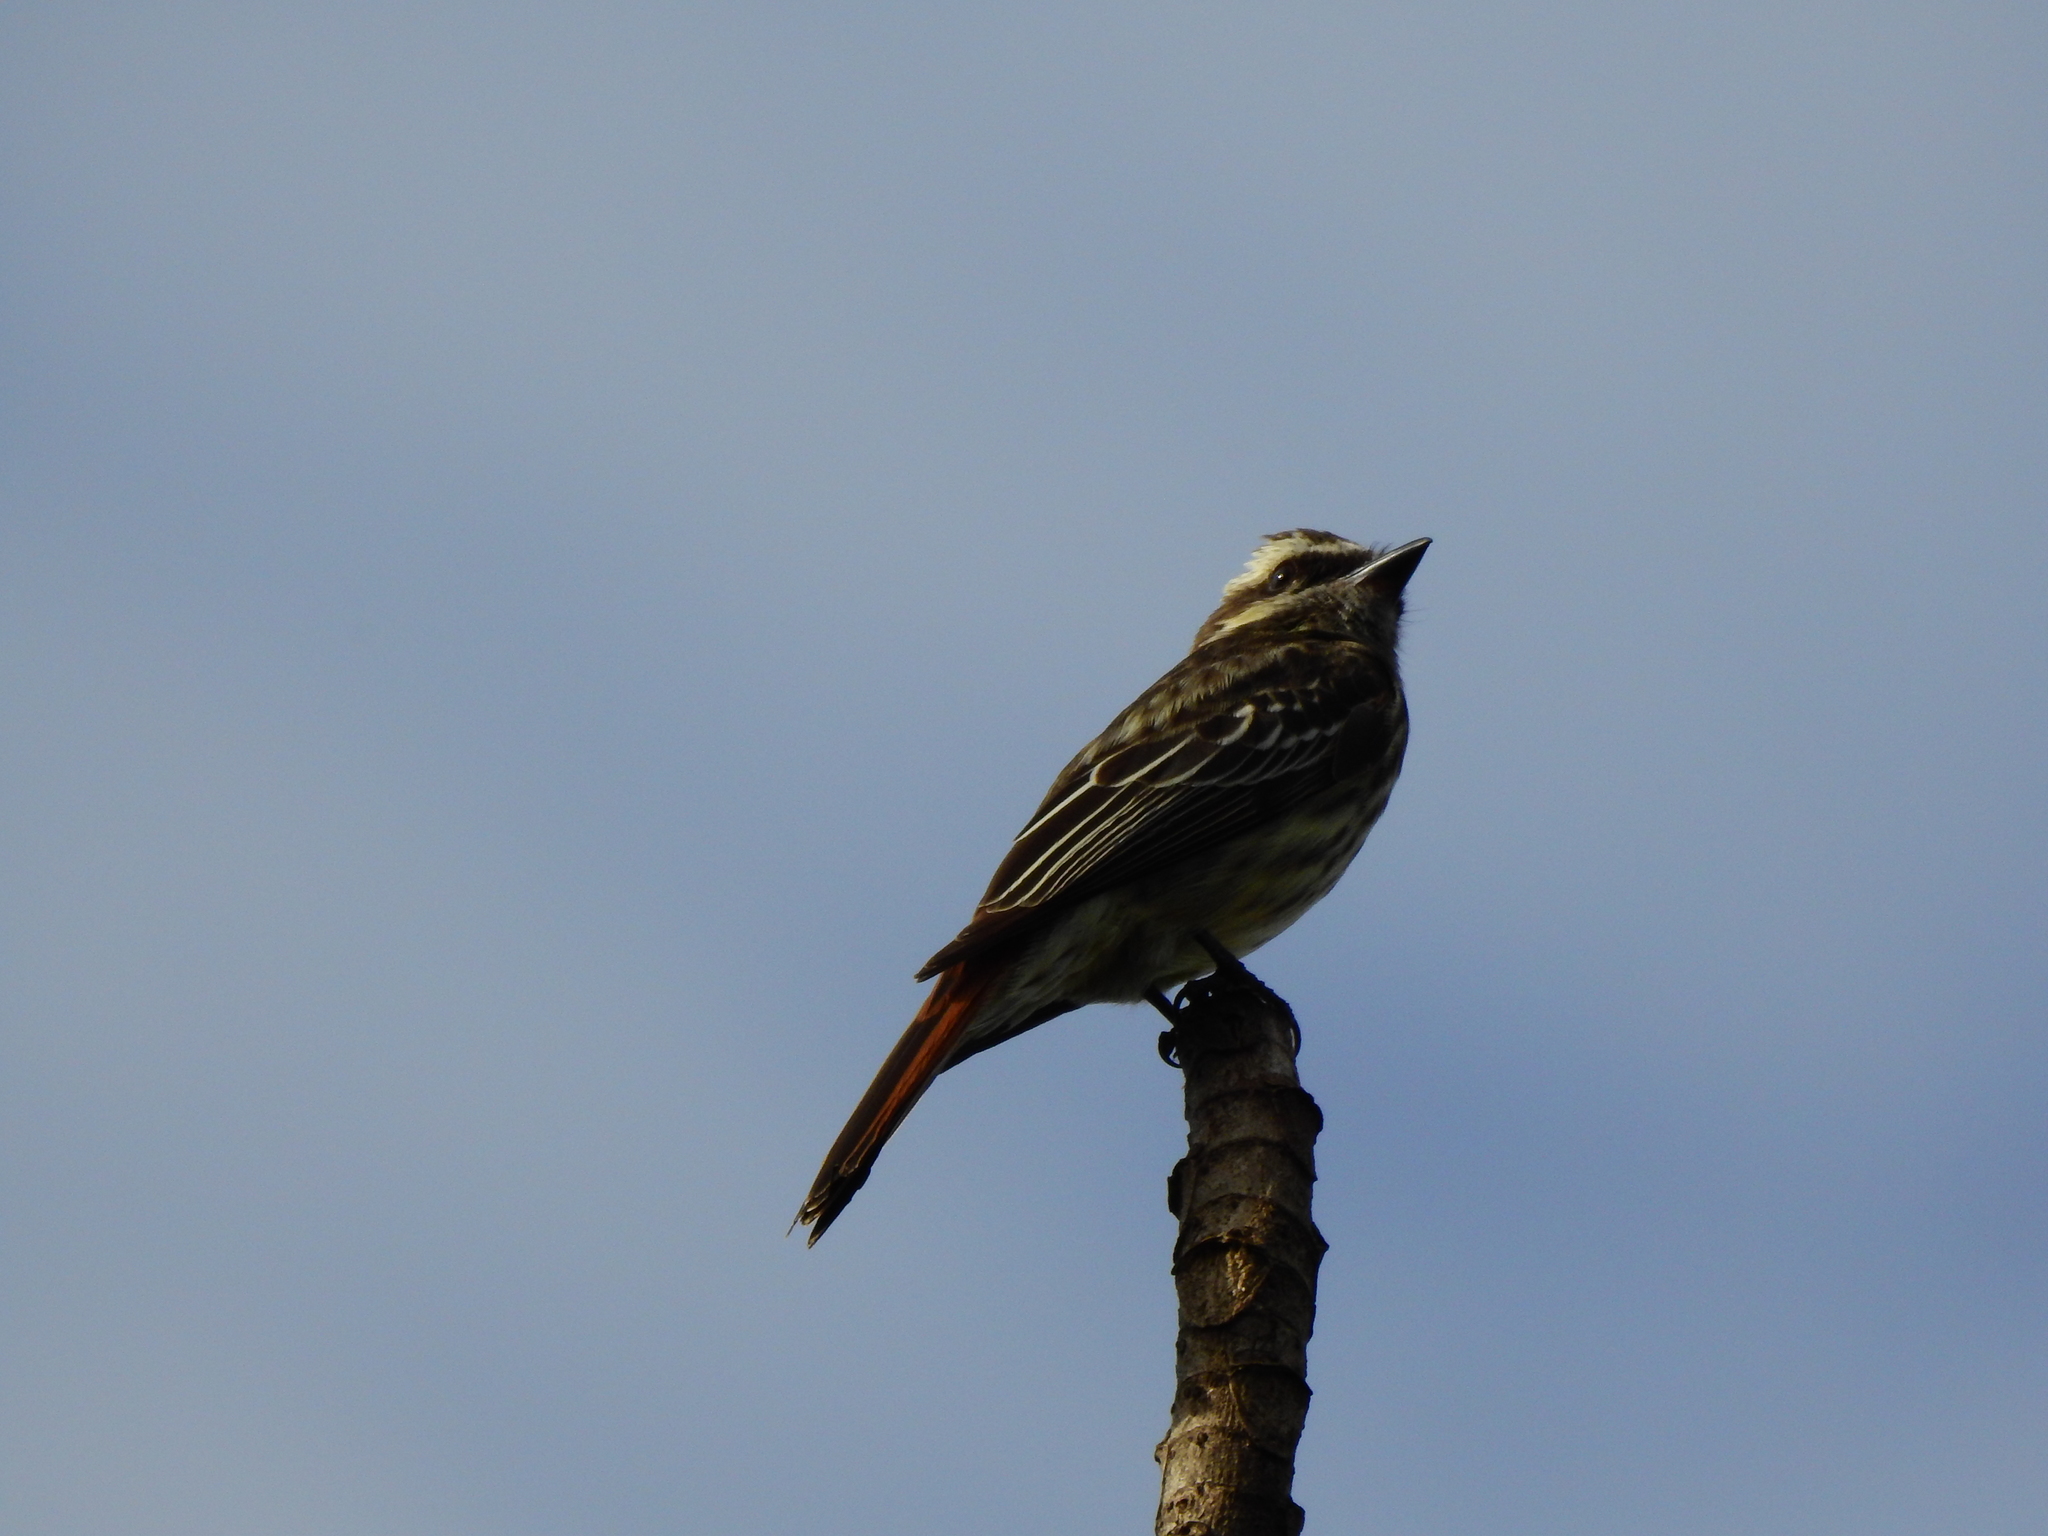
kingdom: Animalia
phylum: Chordata
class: Aves
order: Passeriformes
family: Tyrannidae
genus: Empidonomus
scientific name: Empidonomus varius
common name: Variegated flycatcher
